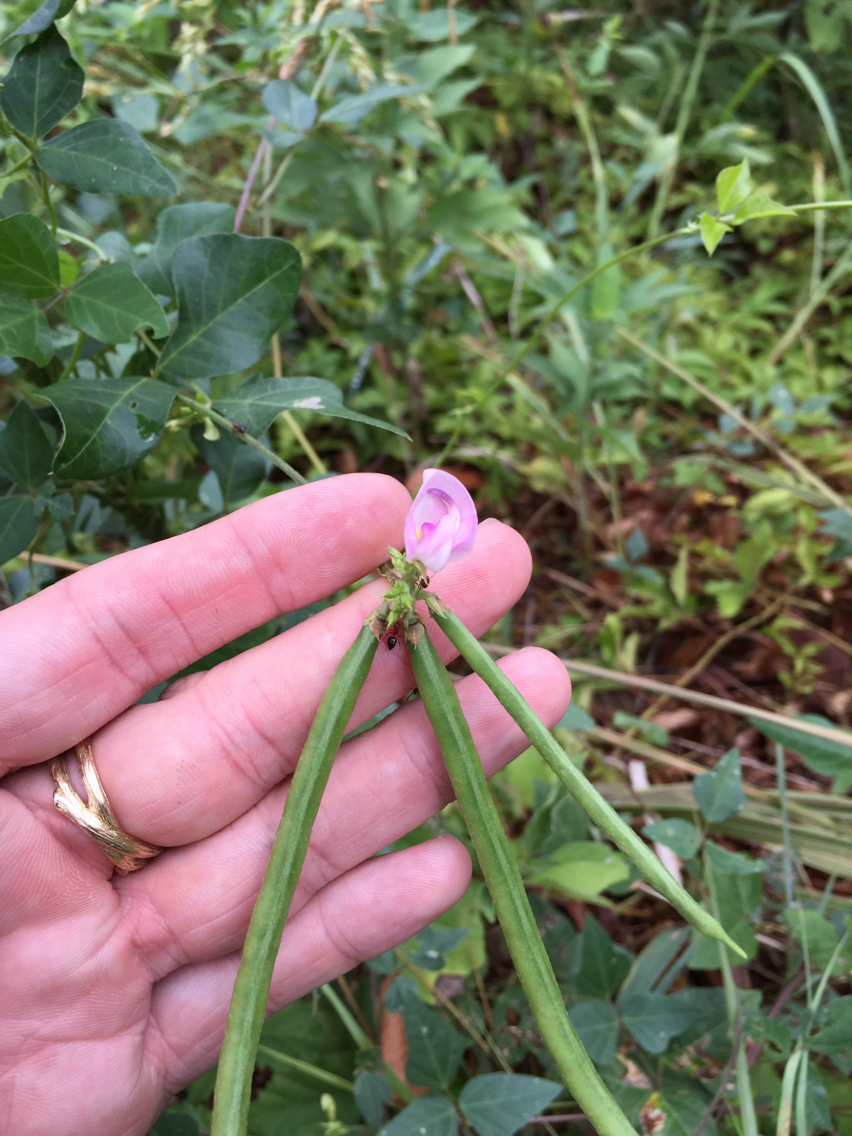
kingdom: Plantae
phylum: Tracheophyta
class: Magnoliopsida
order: Fabales
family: Fabaceae
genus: Strophostyles
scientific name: Strophostyles helvola
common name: Trailing wild bean
